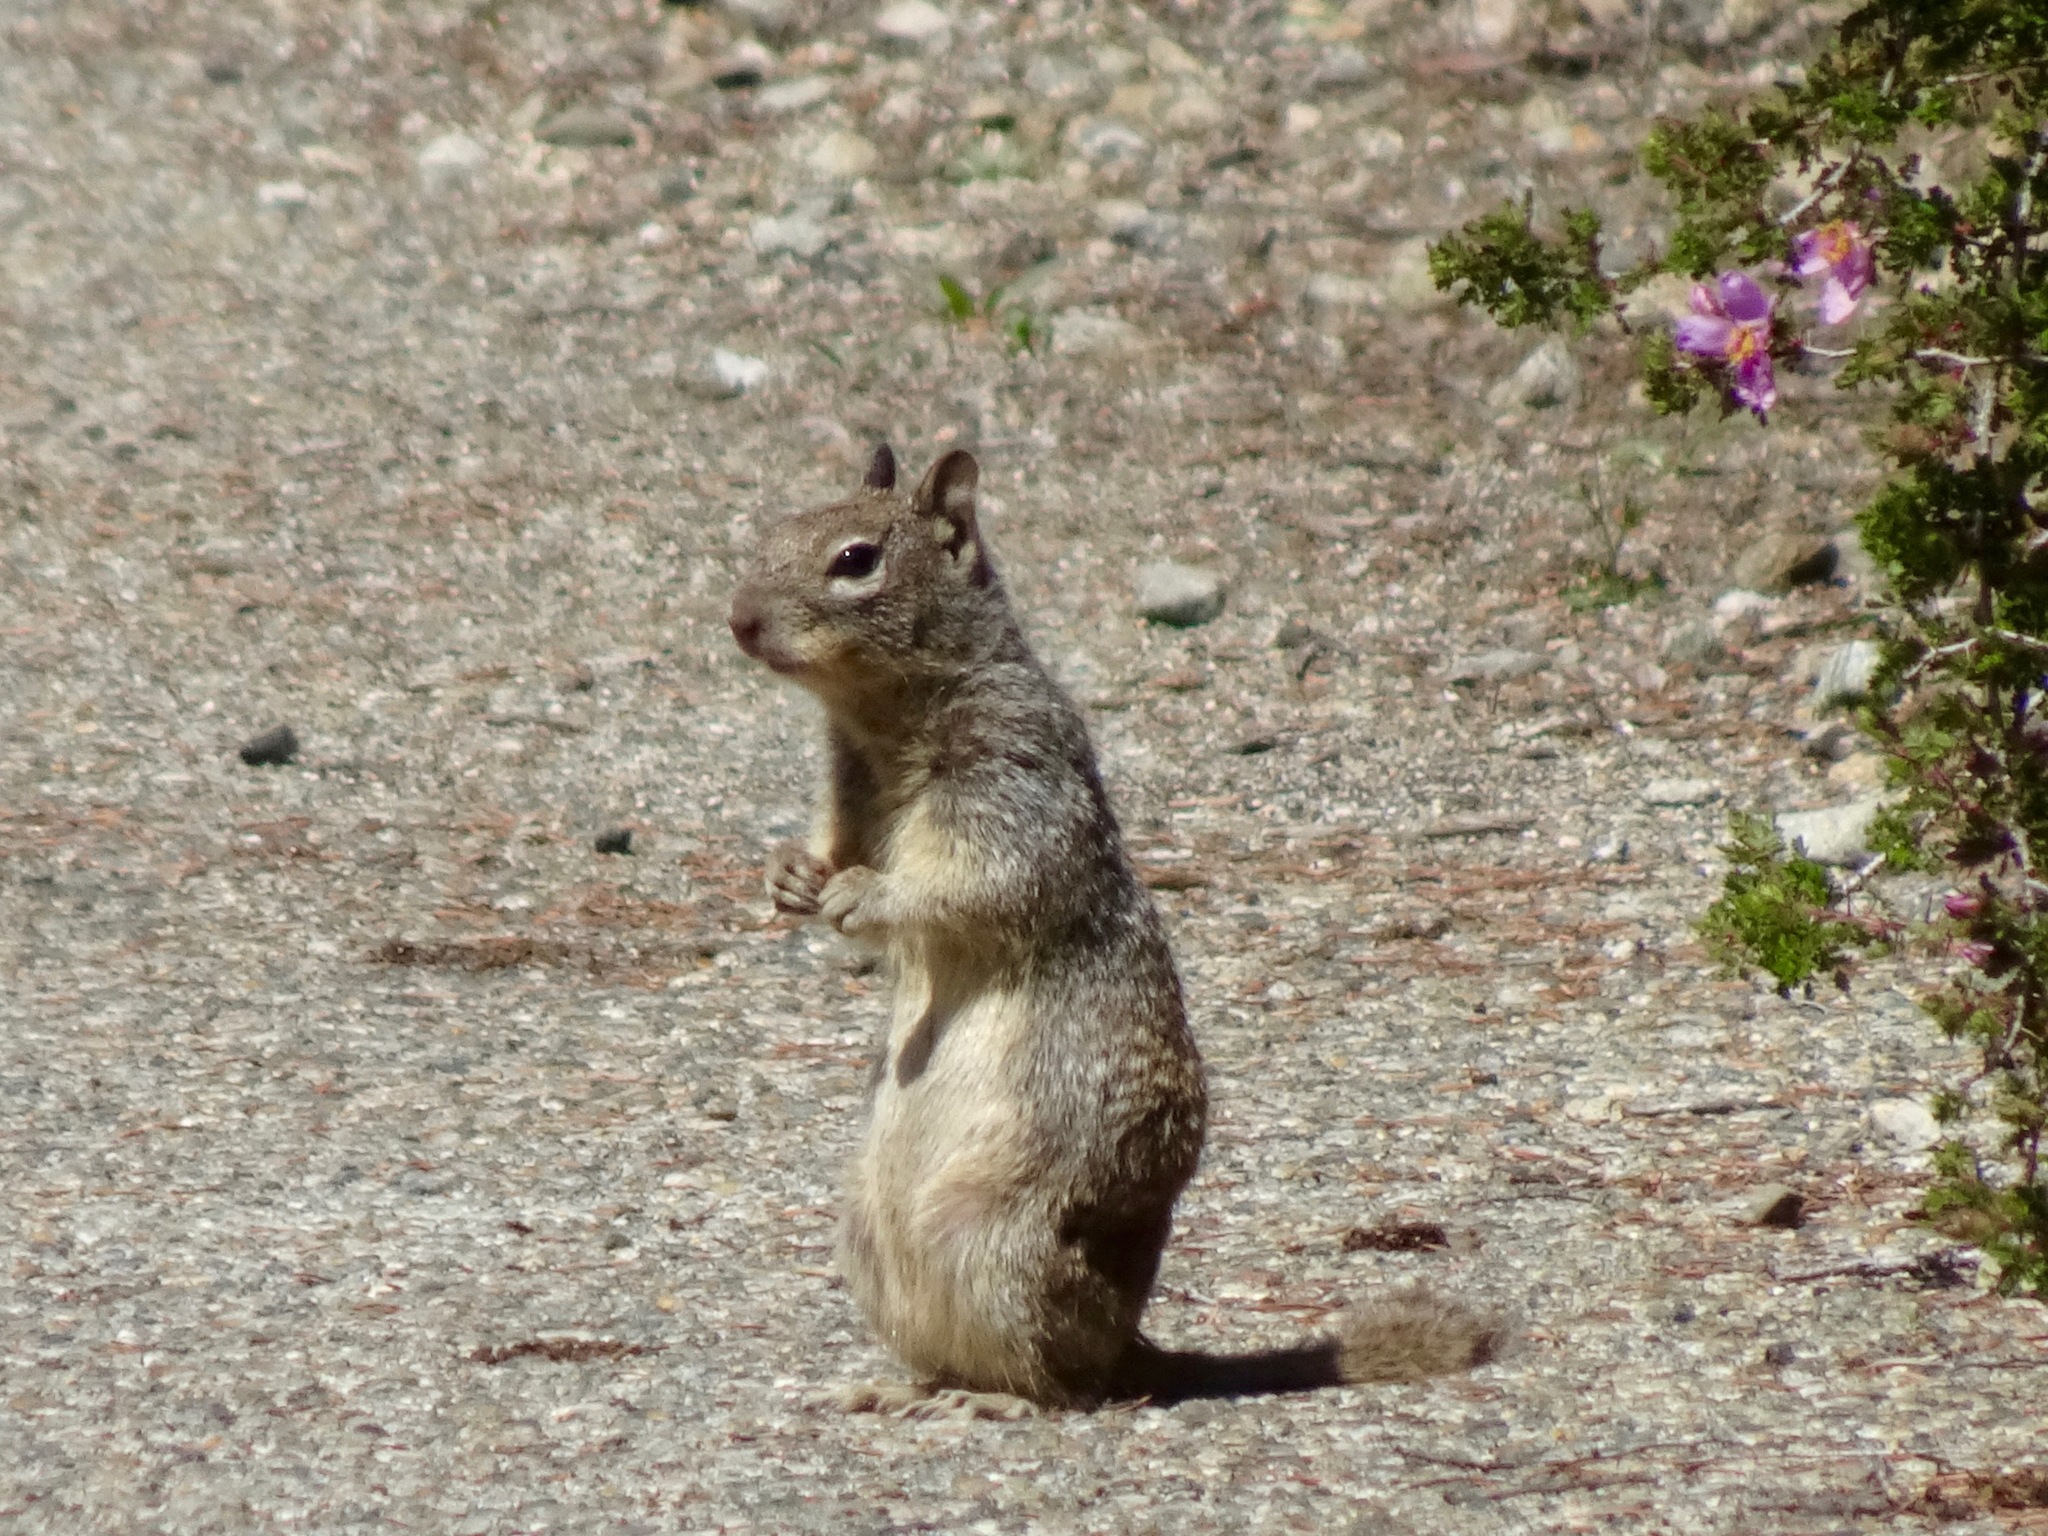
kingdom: Animalia
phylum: Chordata
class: Mammalia
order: Rodentia
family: Sciuridae
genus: Otospermophilus
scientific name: Otospermophilus beecheyi
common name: California ground squirrel
